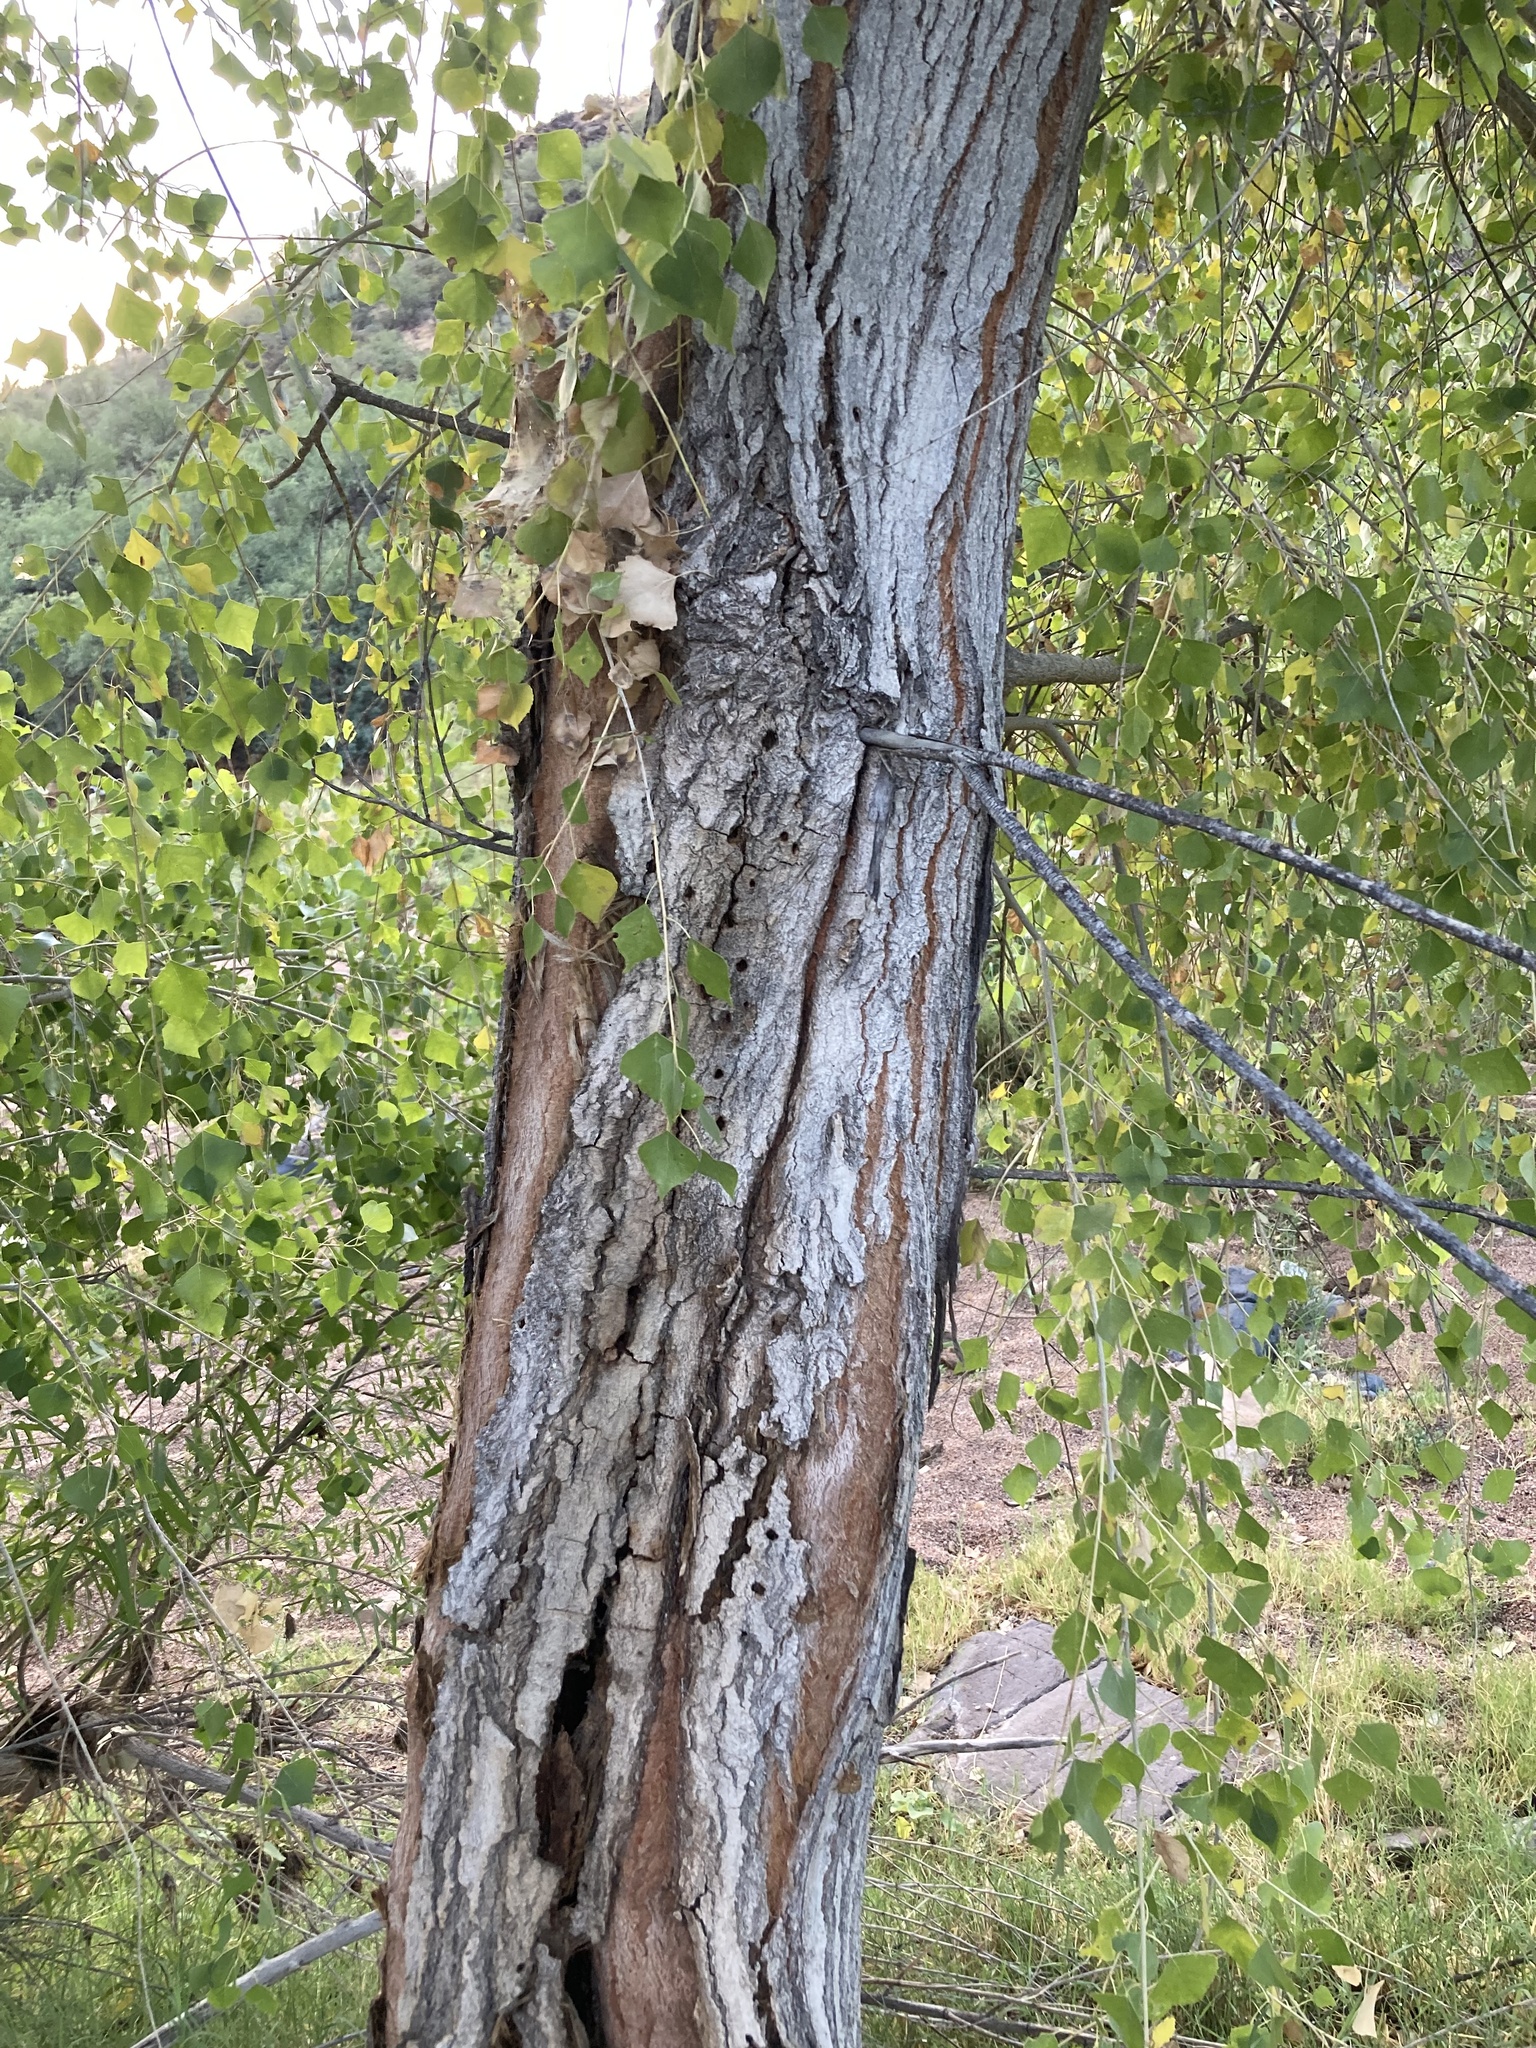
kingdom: Plantae
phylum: Tracheophyta
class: Magnoliopsida
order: Malpighiales
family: Salicaceae
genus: Populus
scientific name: Populus fremontii
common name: Fremont's cottonwood
